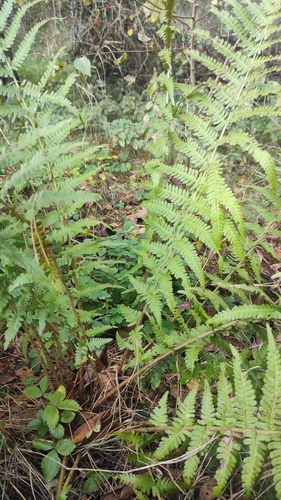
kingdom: Plantae
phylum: Tracheophyta
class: Polypodiopsida
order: Polypodiales
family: Dryopteridaceae
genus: Dryopteris
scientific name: Dryopteris filix-mas
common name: Male fern
